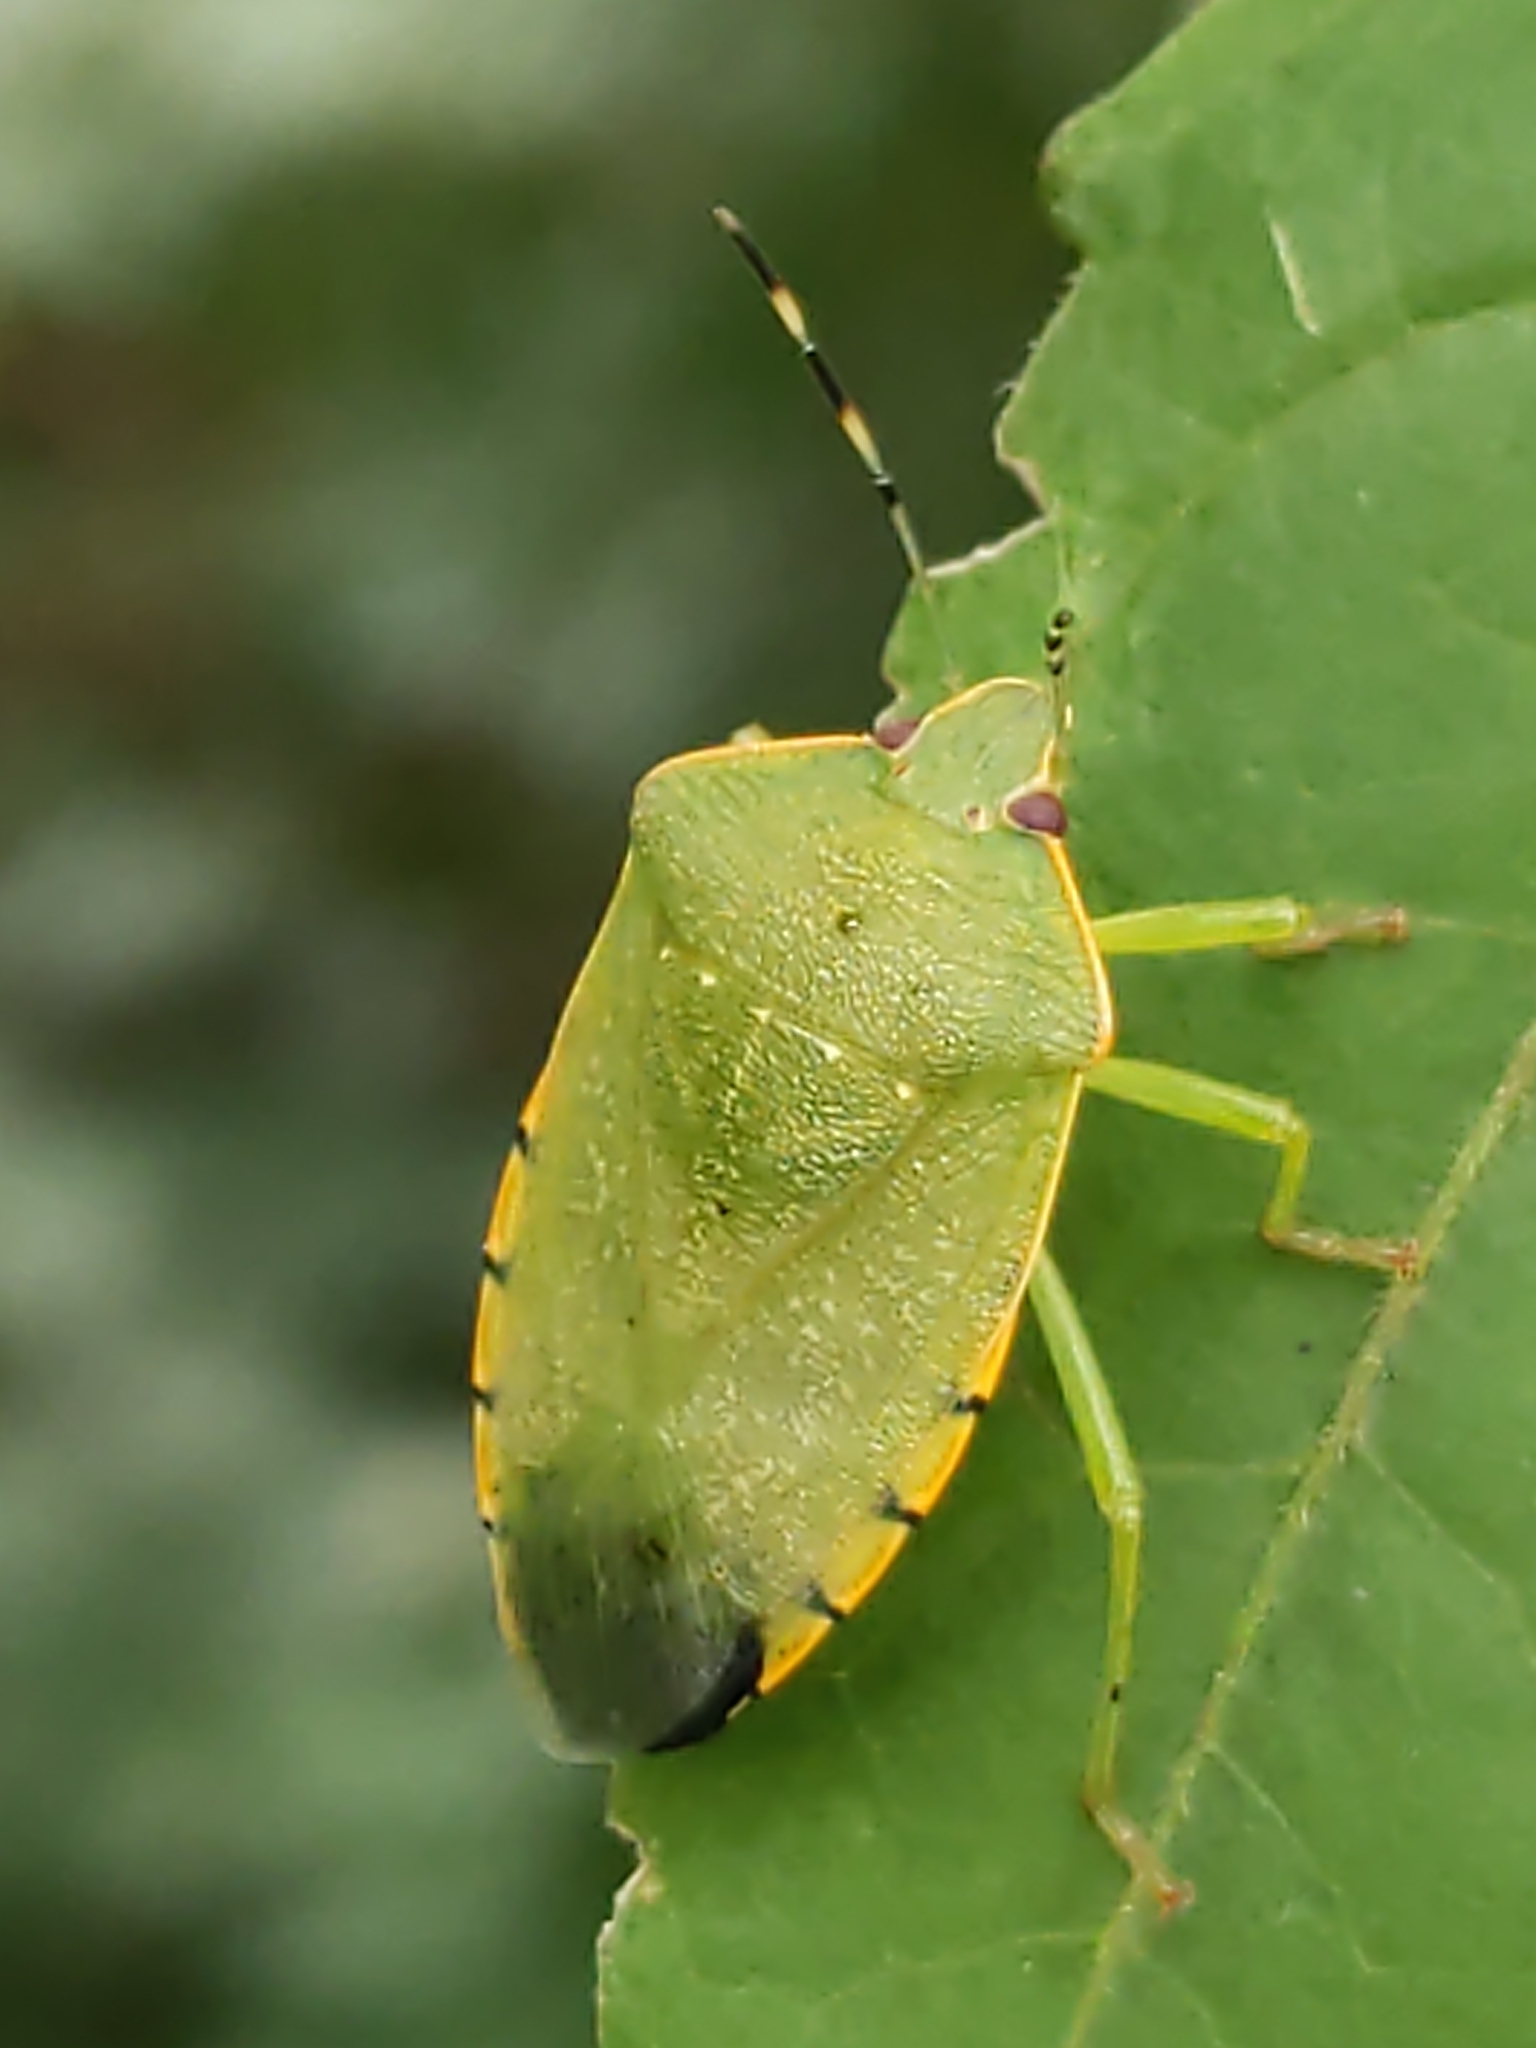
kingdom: Animalia
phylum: Arthropoda
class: Insecta
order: Hemiptera
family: Pentatomidae
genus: Chinavia
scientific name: Chinavia hilaris
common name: Green stink bug
